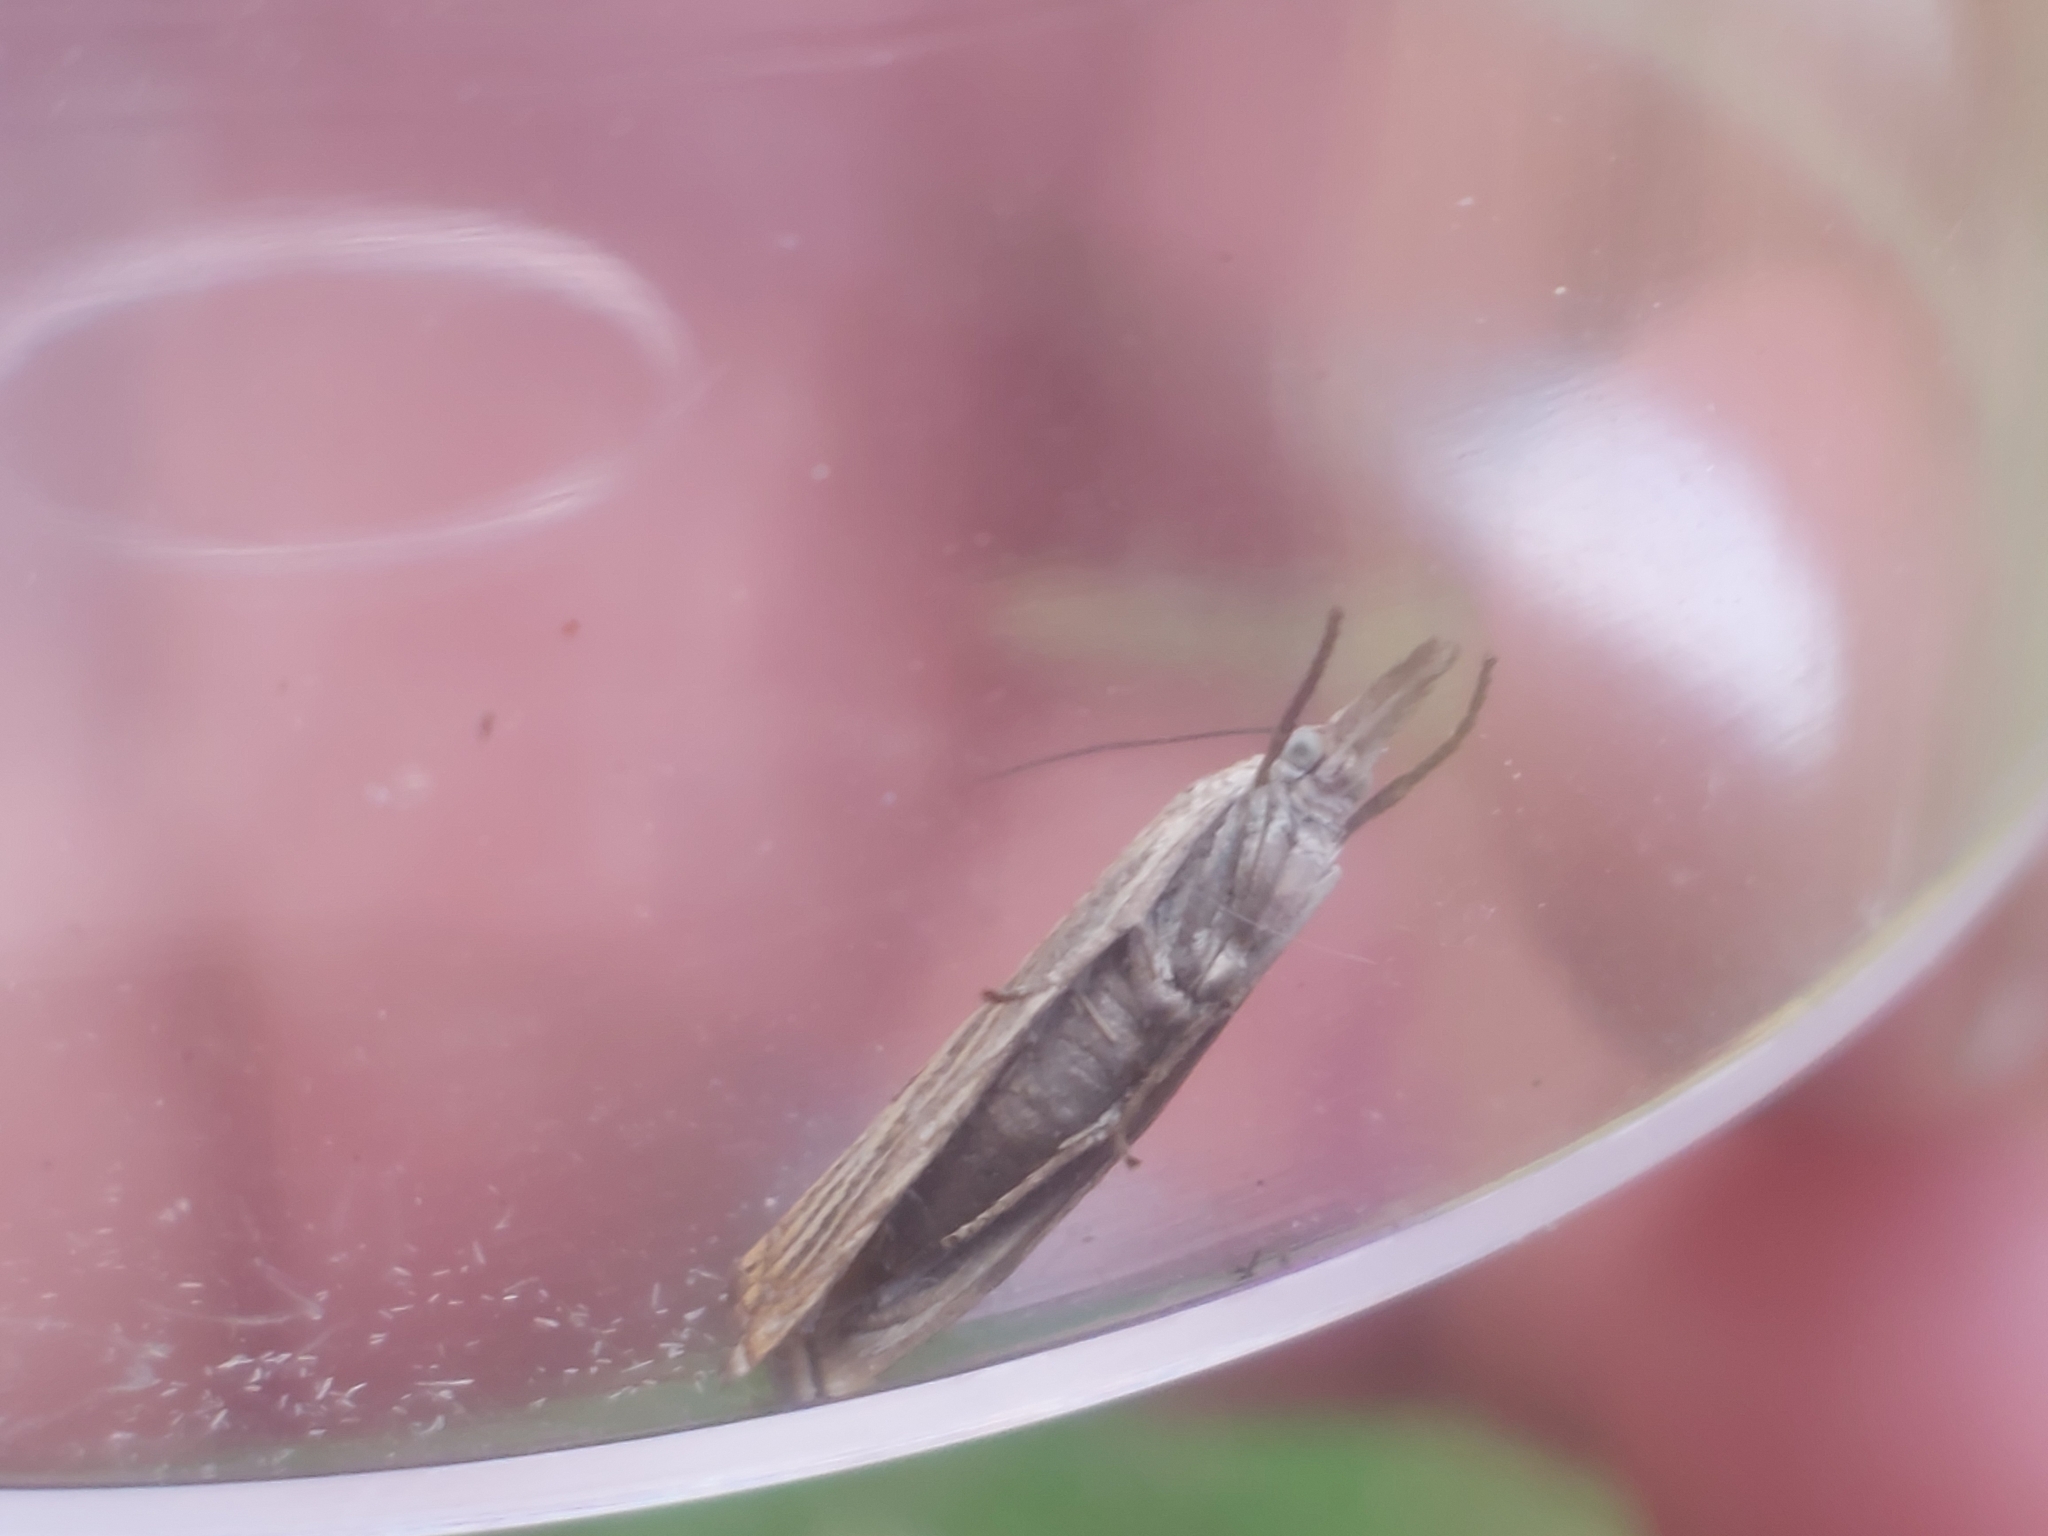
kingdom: Animalia
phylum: Arthropoda
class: Insecta
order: Lepidoptera
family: Crambidae
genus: Chrysoteuchia
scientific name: Chrysoteuchia culmella
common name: Garden grass-veneer
